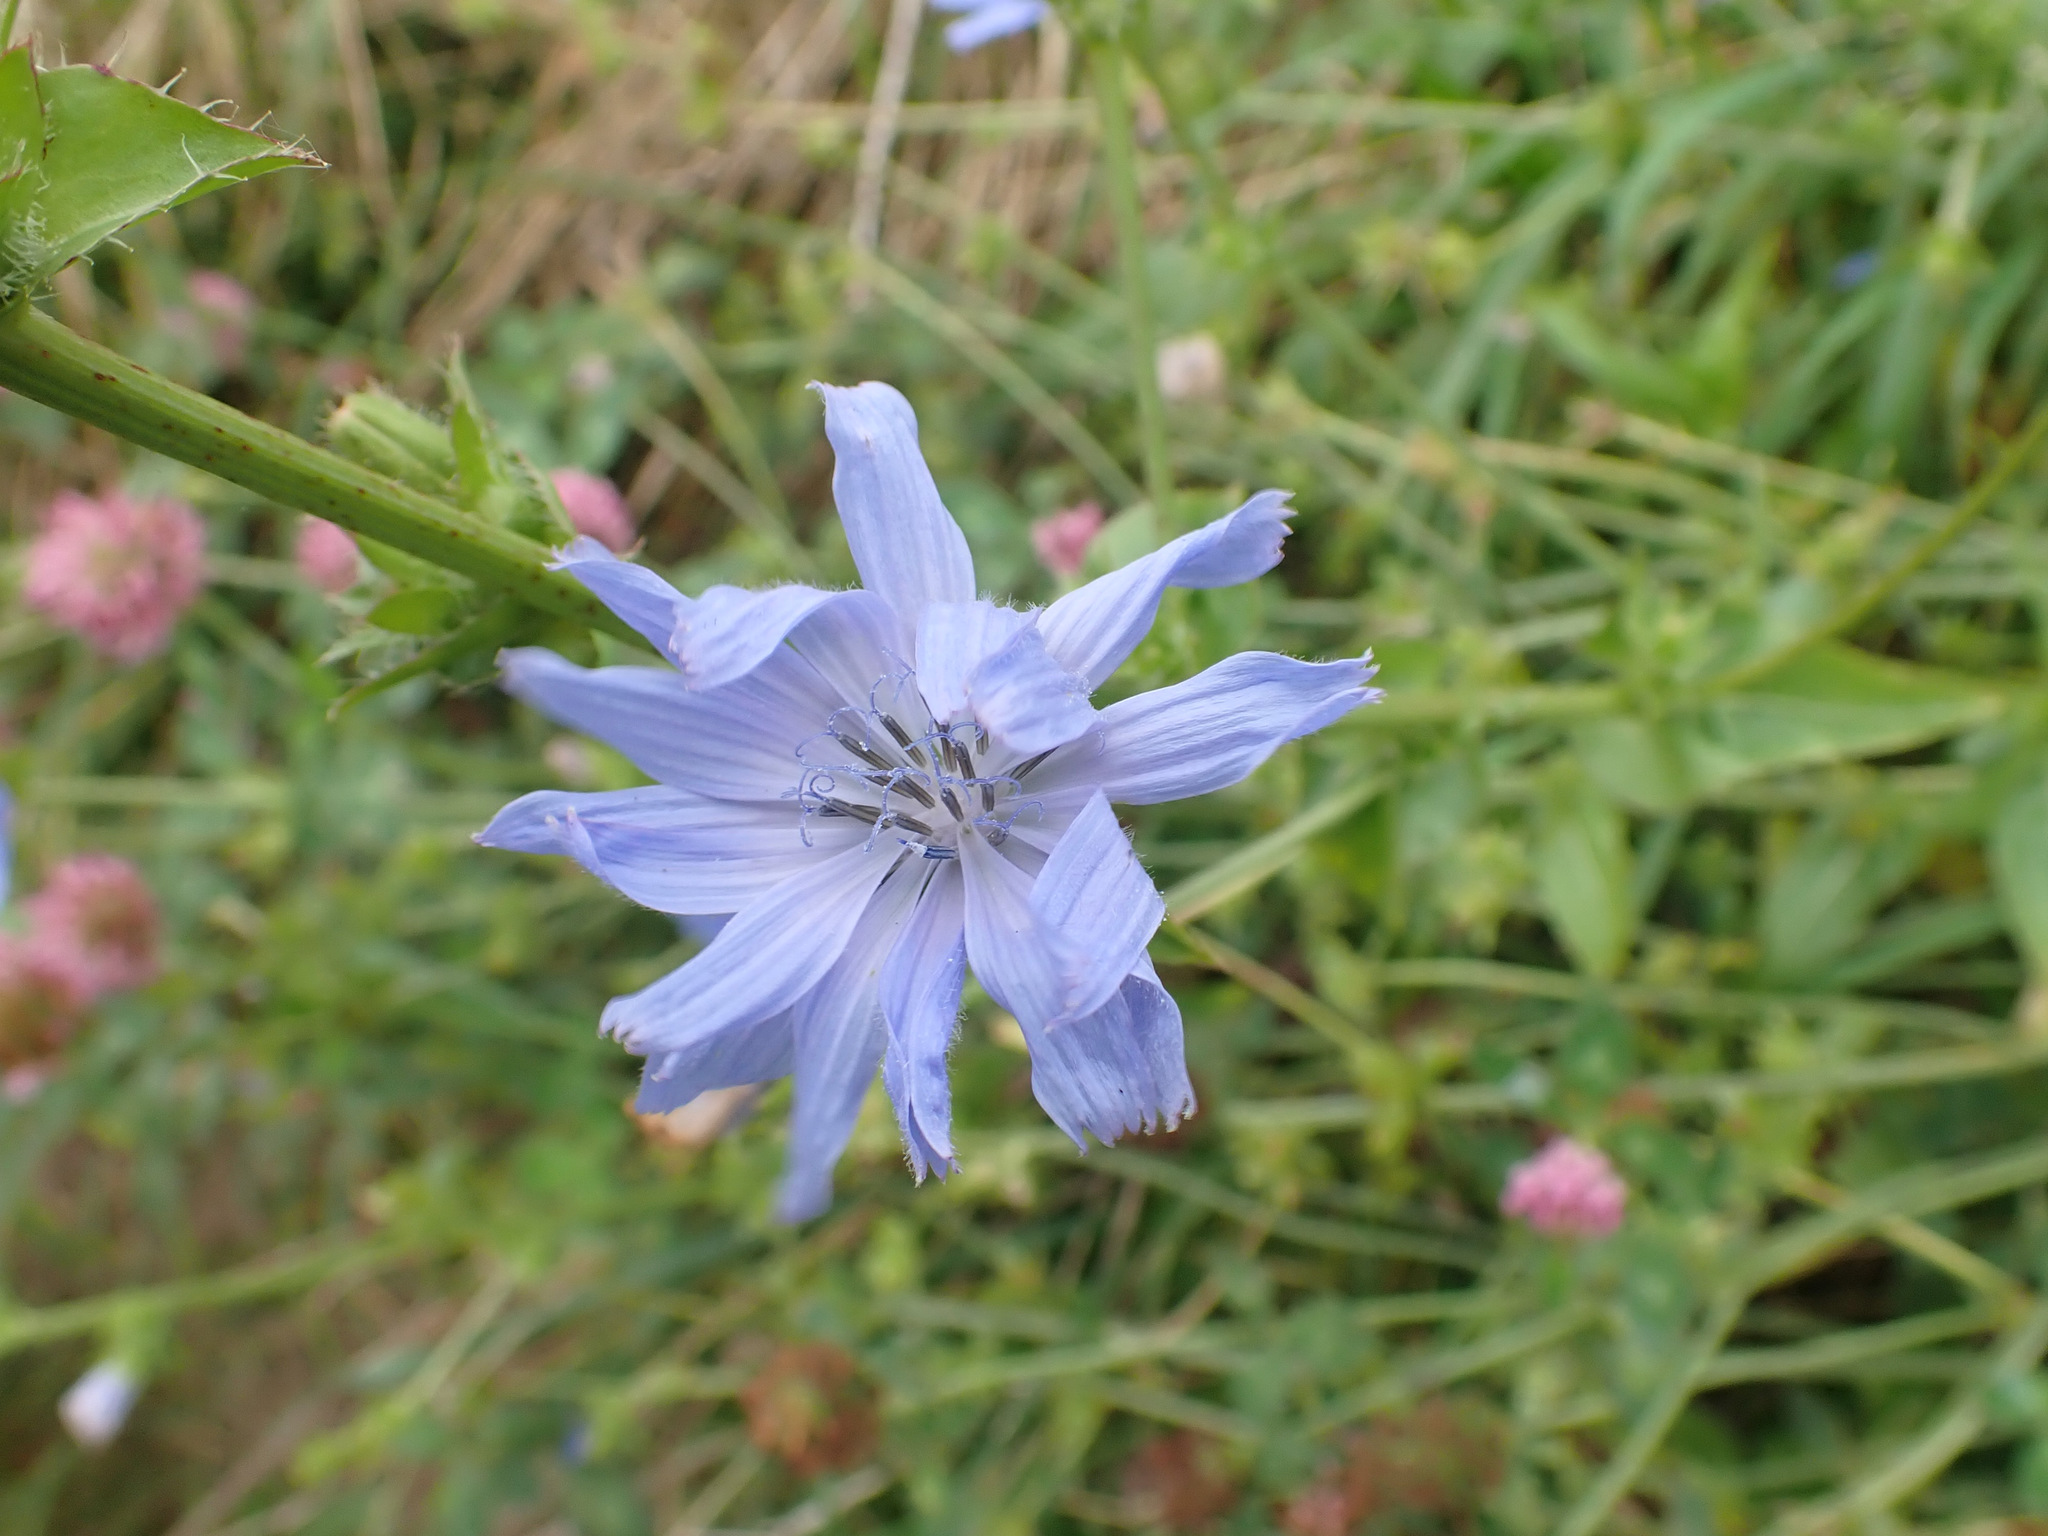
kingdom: Plantae
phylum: Tracheophyta
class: Magnoliopsida
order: Asterales
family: Asteraceae
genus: Cichorium
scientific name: Cichorium intybus
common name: Chicory
